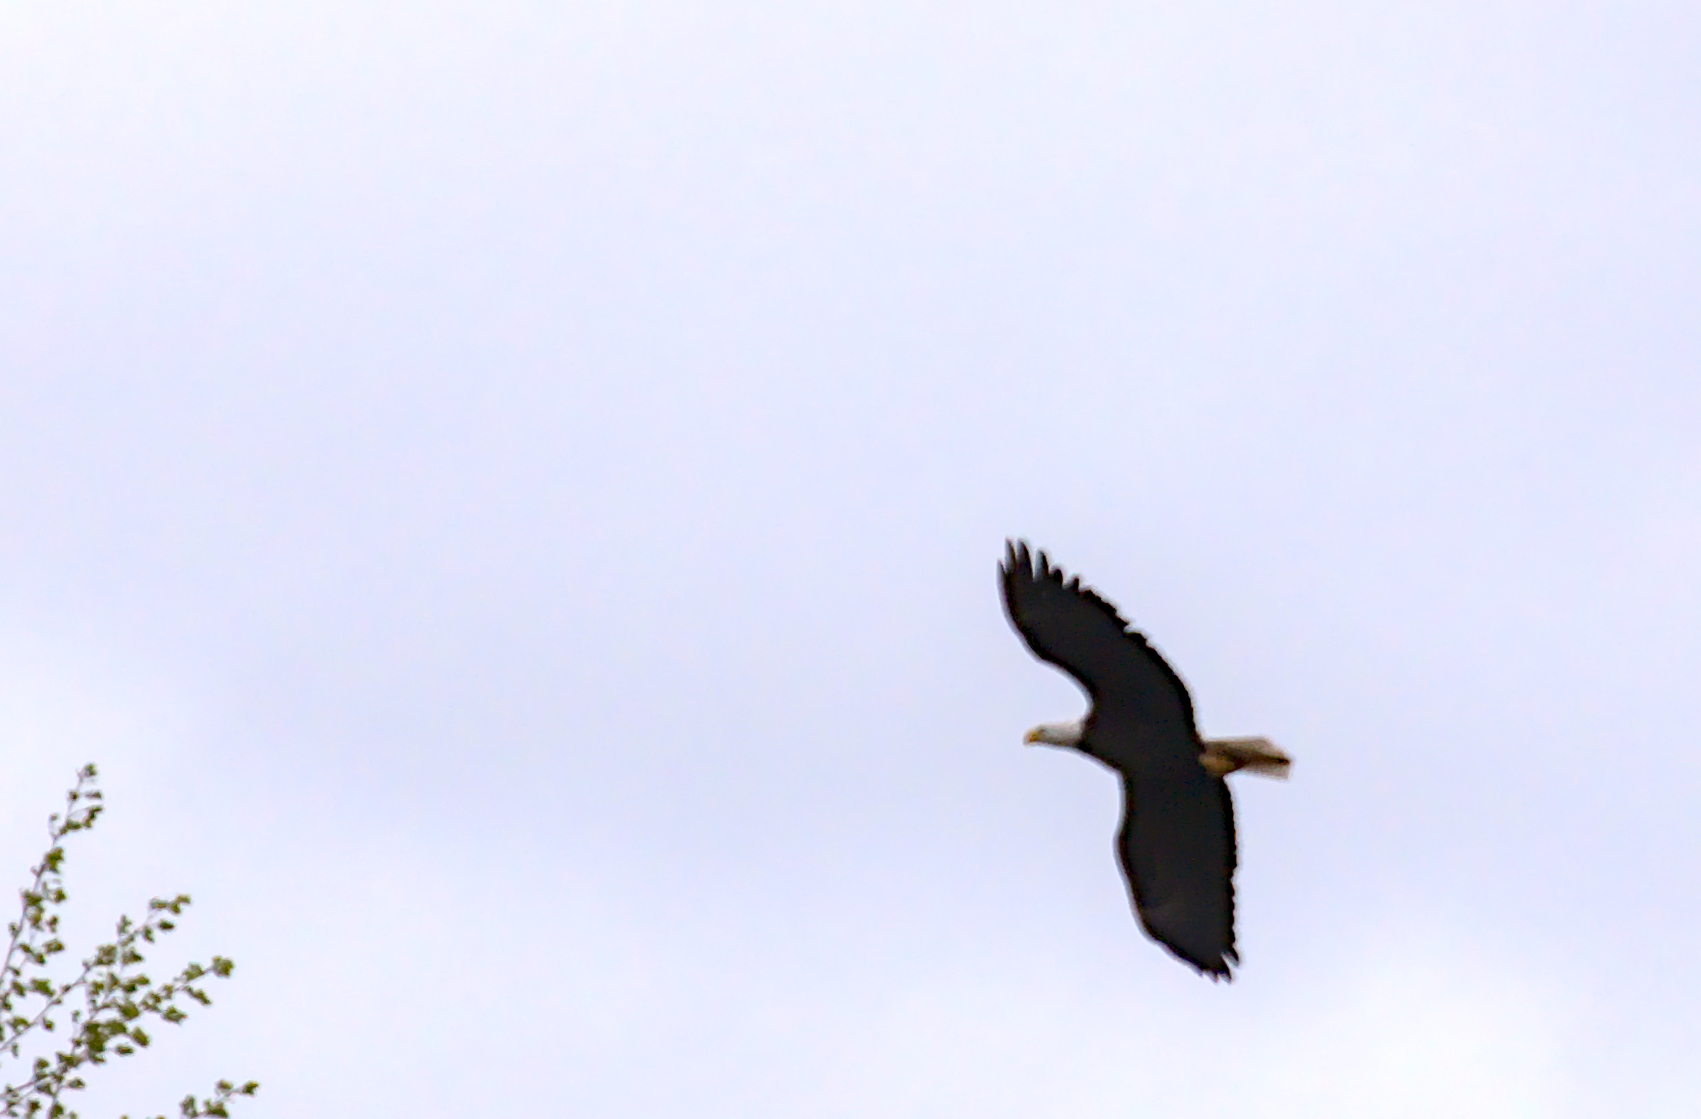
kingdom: Animalia
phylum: Chordata
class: Aves
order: Accipitriformes
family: Accipitridae
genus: Haliaeetus
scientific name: Haliaeetus leucocephalus
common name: Bald eagle
